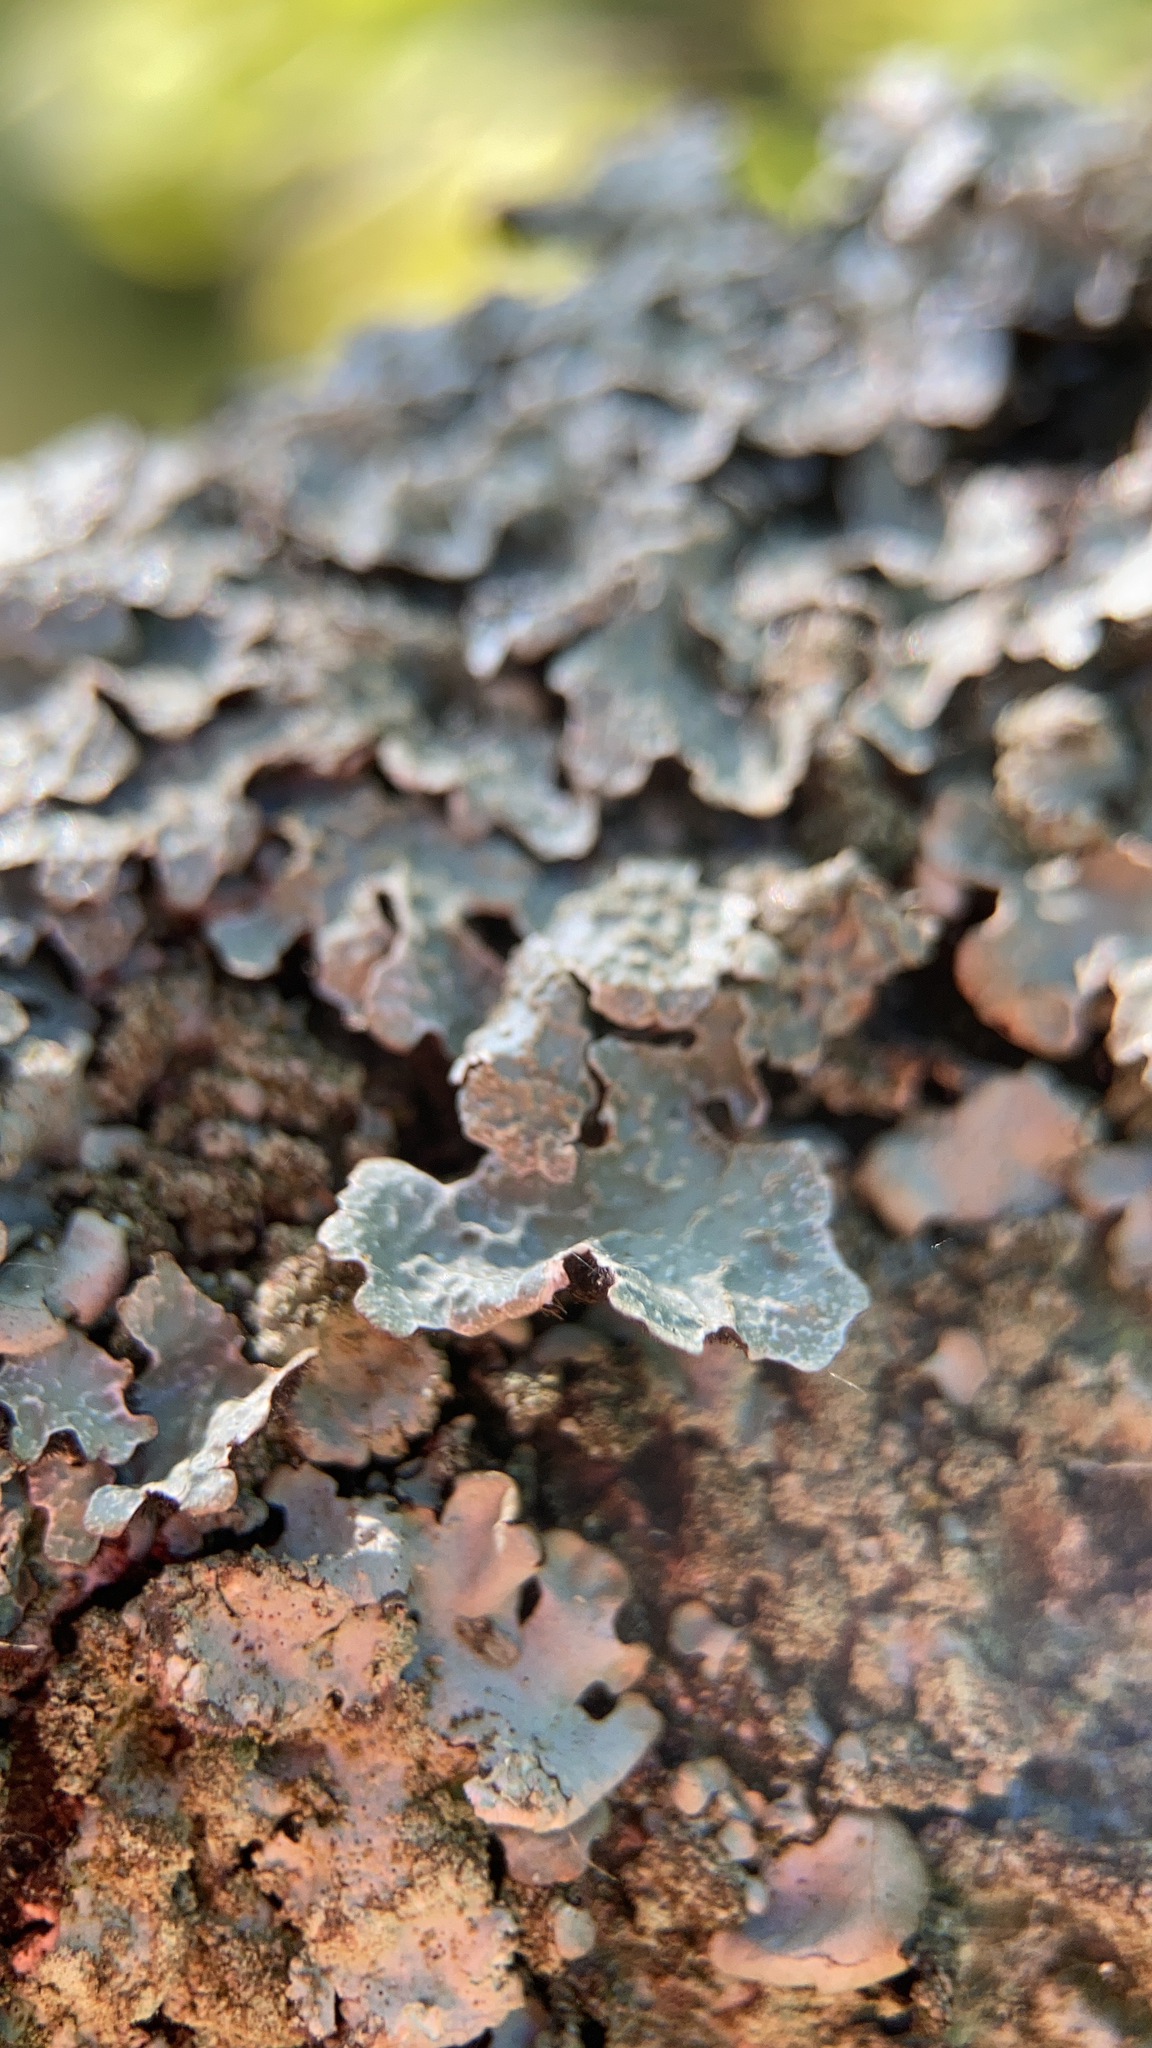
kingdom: Fungi
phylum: Ascomycota
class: Lecanoromycetes
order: Lecanorales
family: Parmeliaceae
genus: Parmelia
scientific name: Parmelia sulcata
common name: Netted shield lichen
